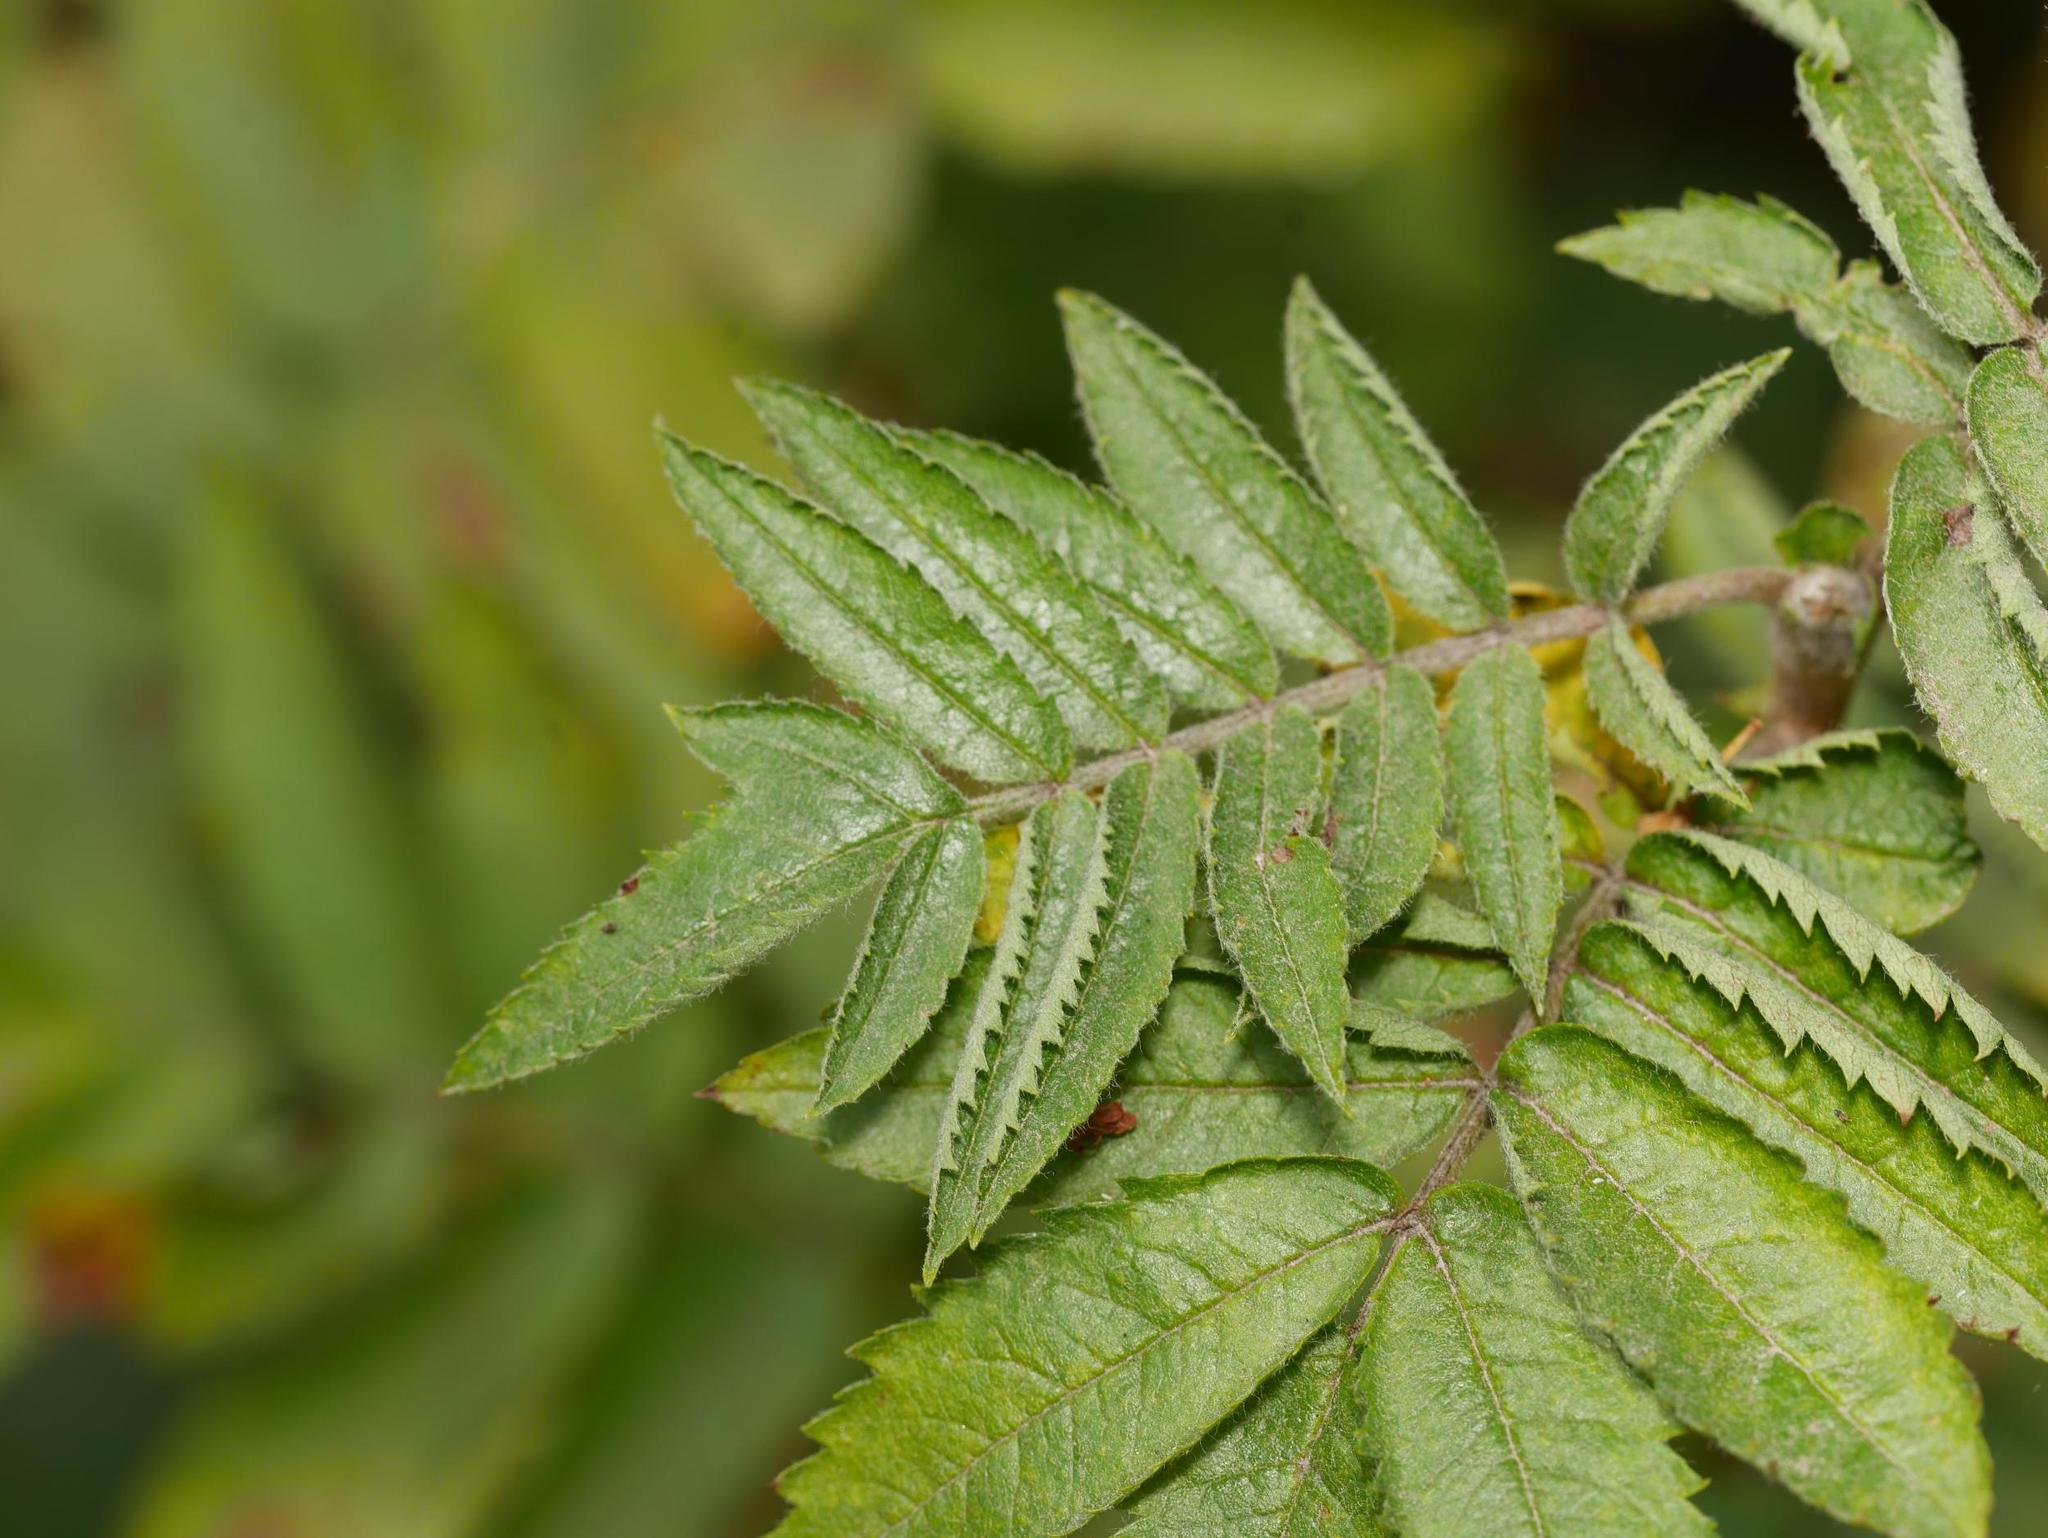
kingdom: Plantae
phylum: Tracheophyta
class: Magnoliopsida
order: Rosales
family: Rosaceae
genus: Sorbus
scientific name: Sorbus aucuparia
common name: Rowan
